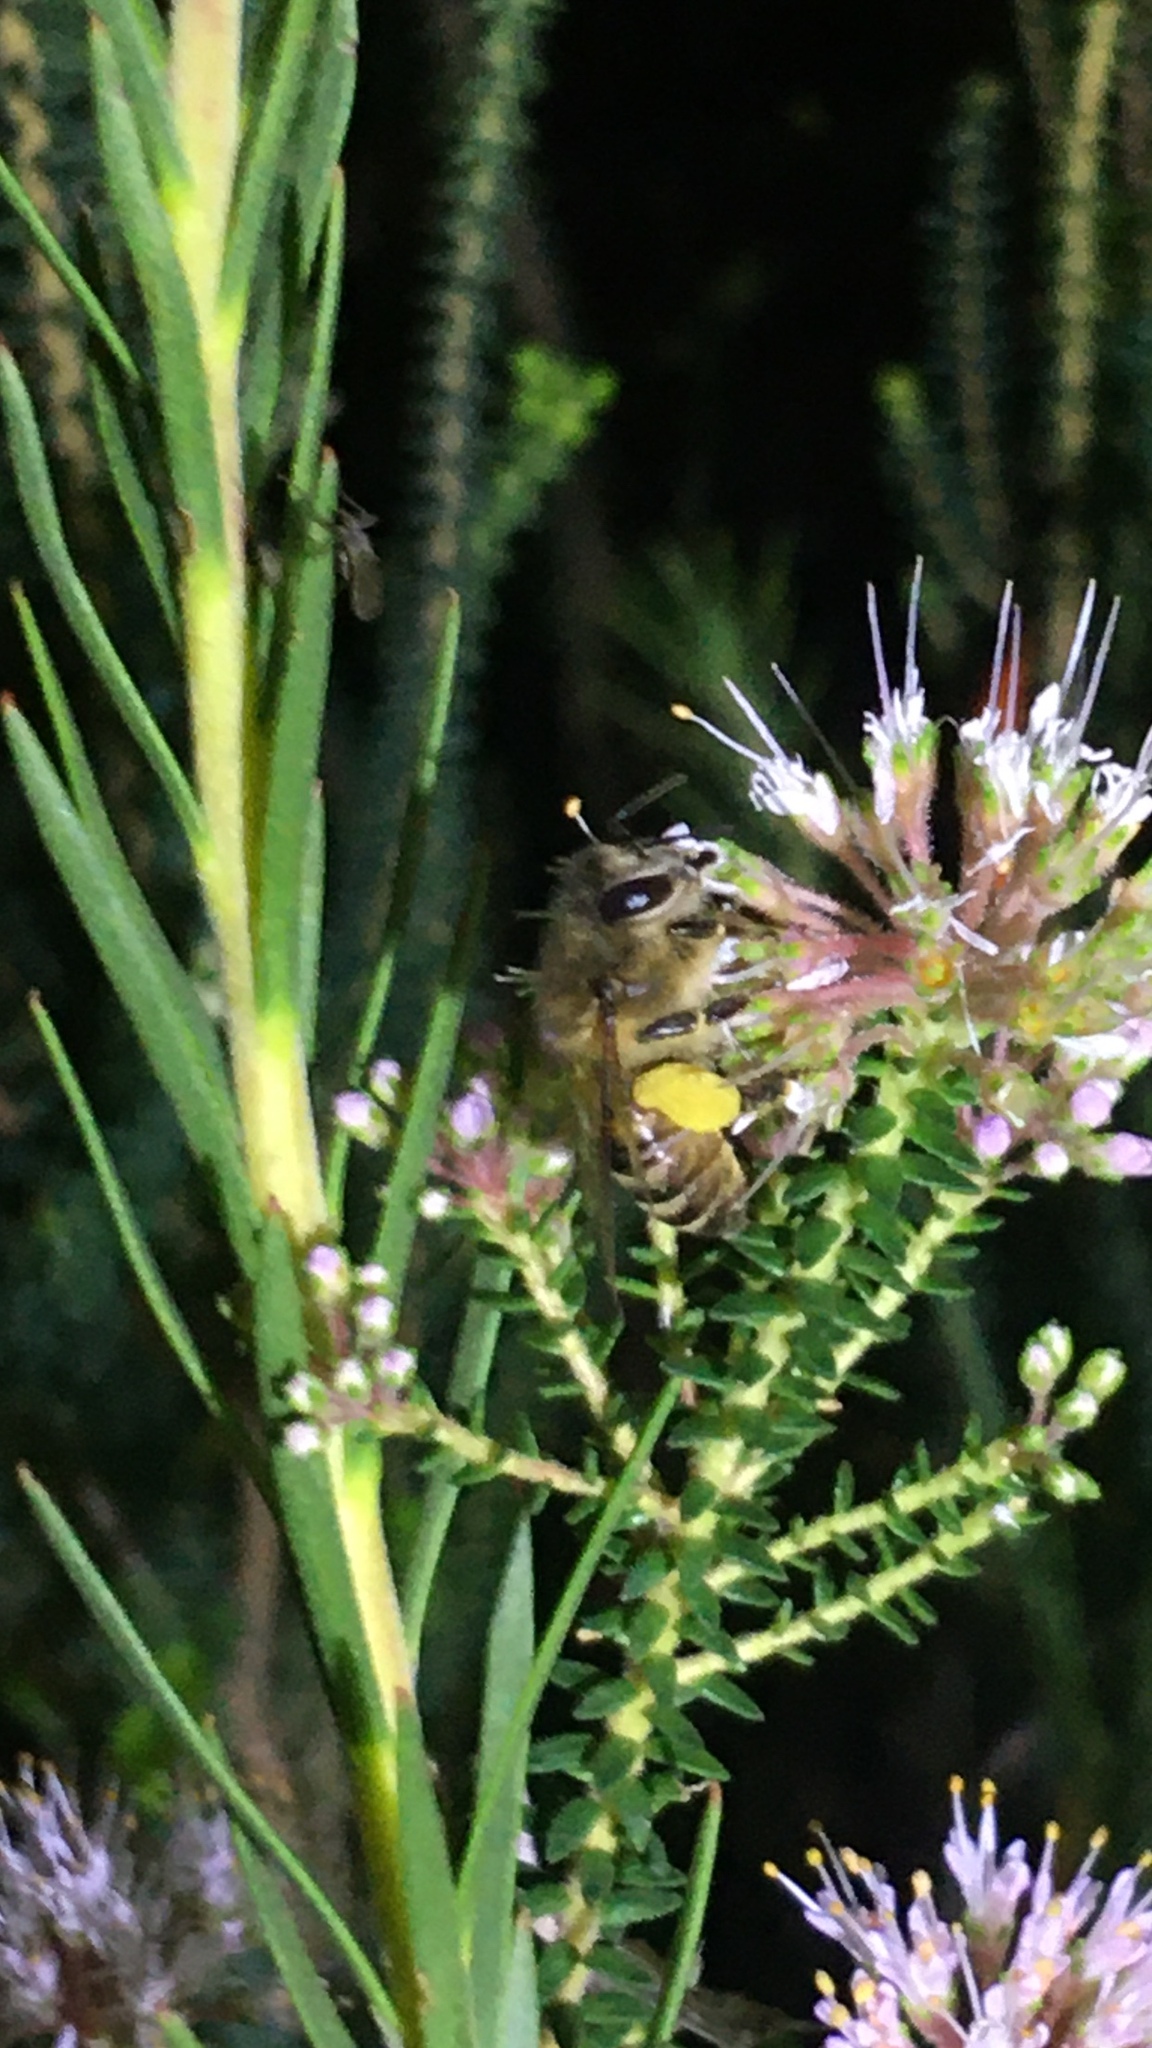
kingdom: Animalia
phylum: Arthropoda
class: Insecta
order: Hymenoptera
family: Apidae
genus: Apis
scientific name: Apis mellifera
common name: Honey bee
